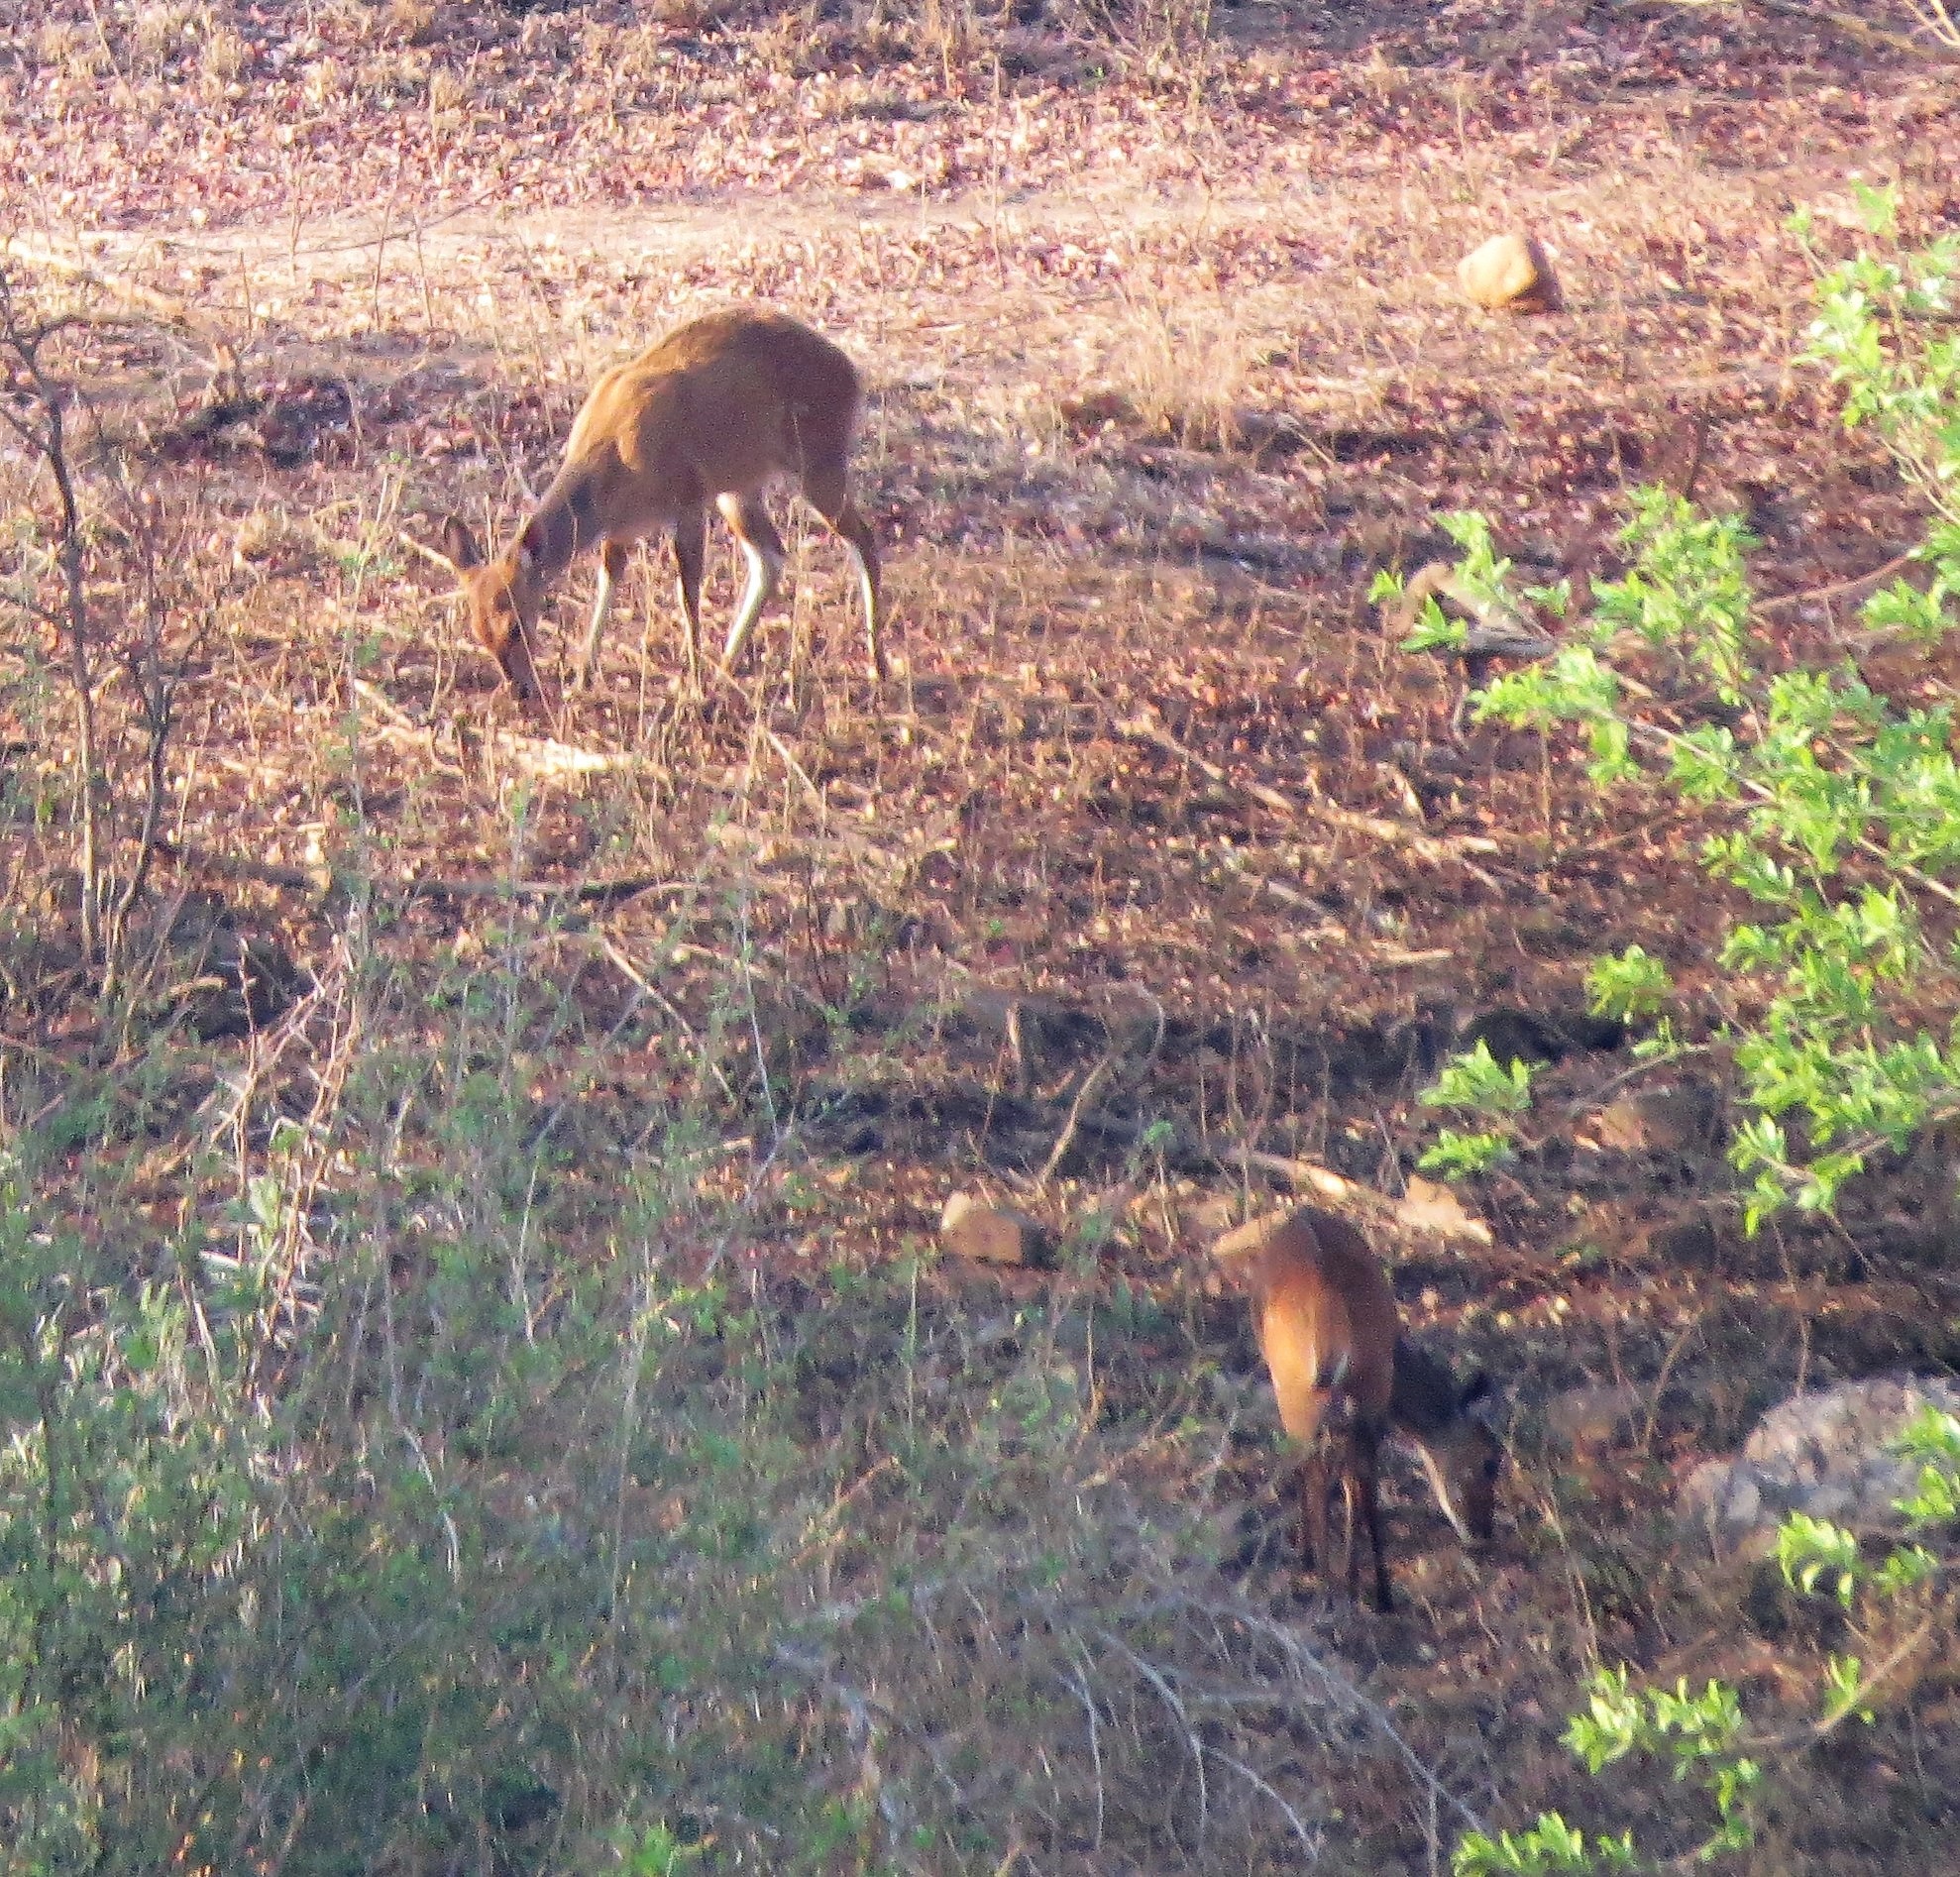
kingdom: Animalia
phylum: Chordata
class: Mammalia
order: Artiodactyla
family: Bovidae
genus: Tragelaphus
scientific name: Tragelaphus scriptus
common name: Bushbuck
